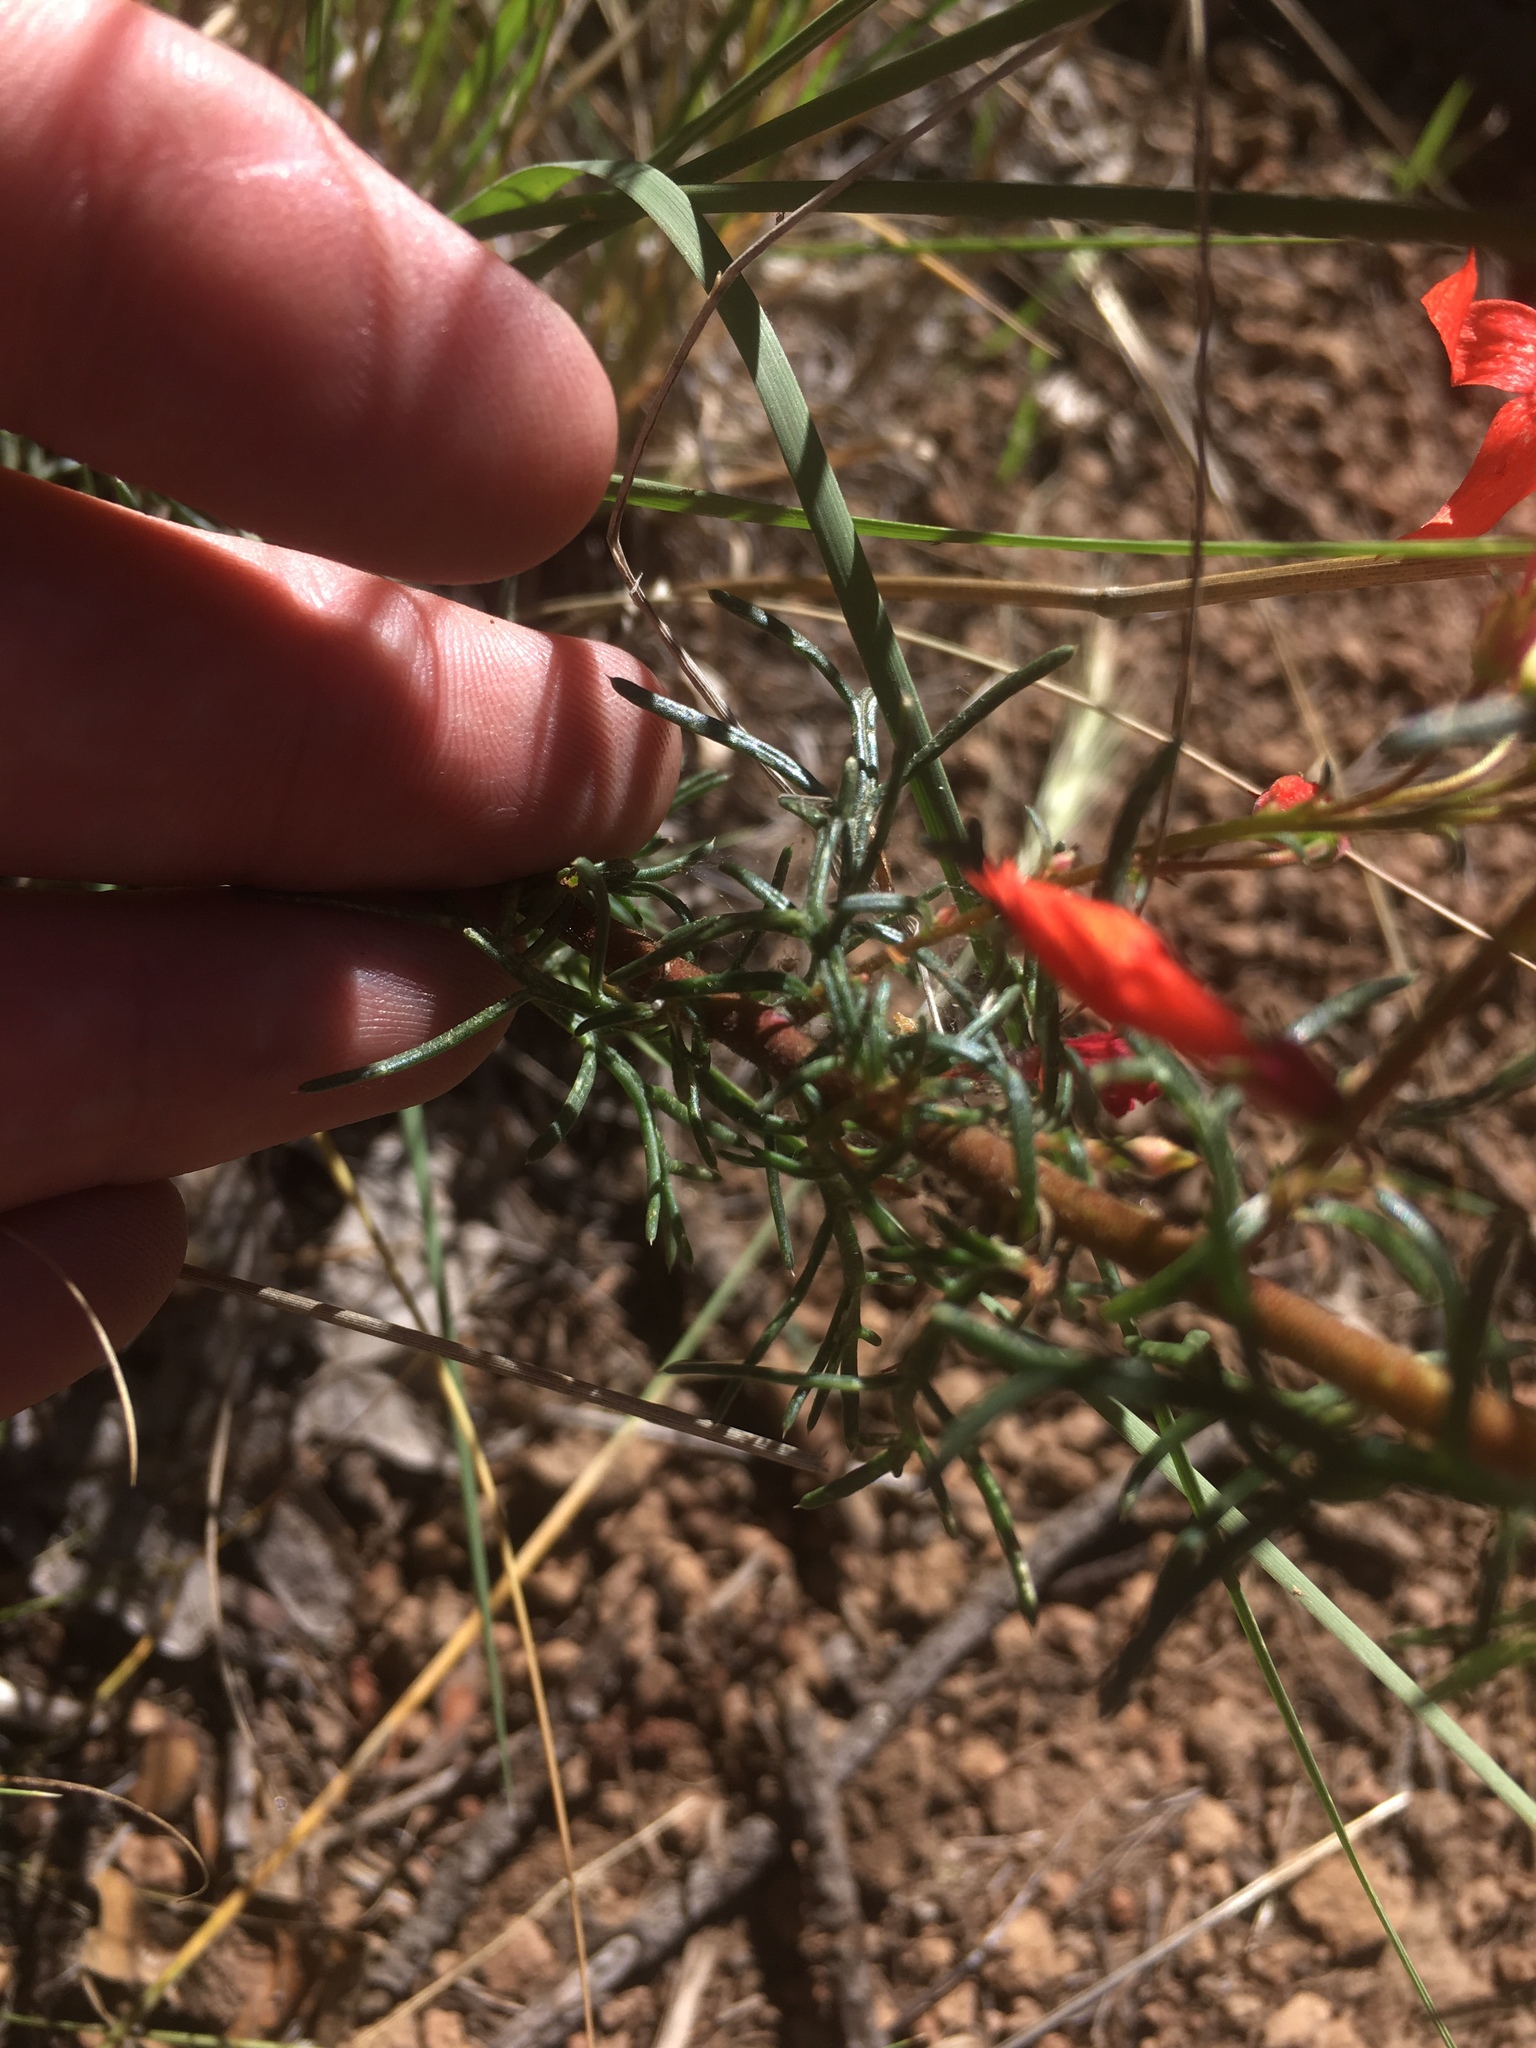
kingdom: Plantae
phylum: Tracheophyta
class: Magnoliopsida
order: Ericales
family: Polemoniaceae
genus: Ipomopsis
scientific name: Ipomopsis aggregata
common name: Scarlet gilia
